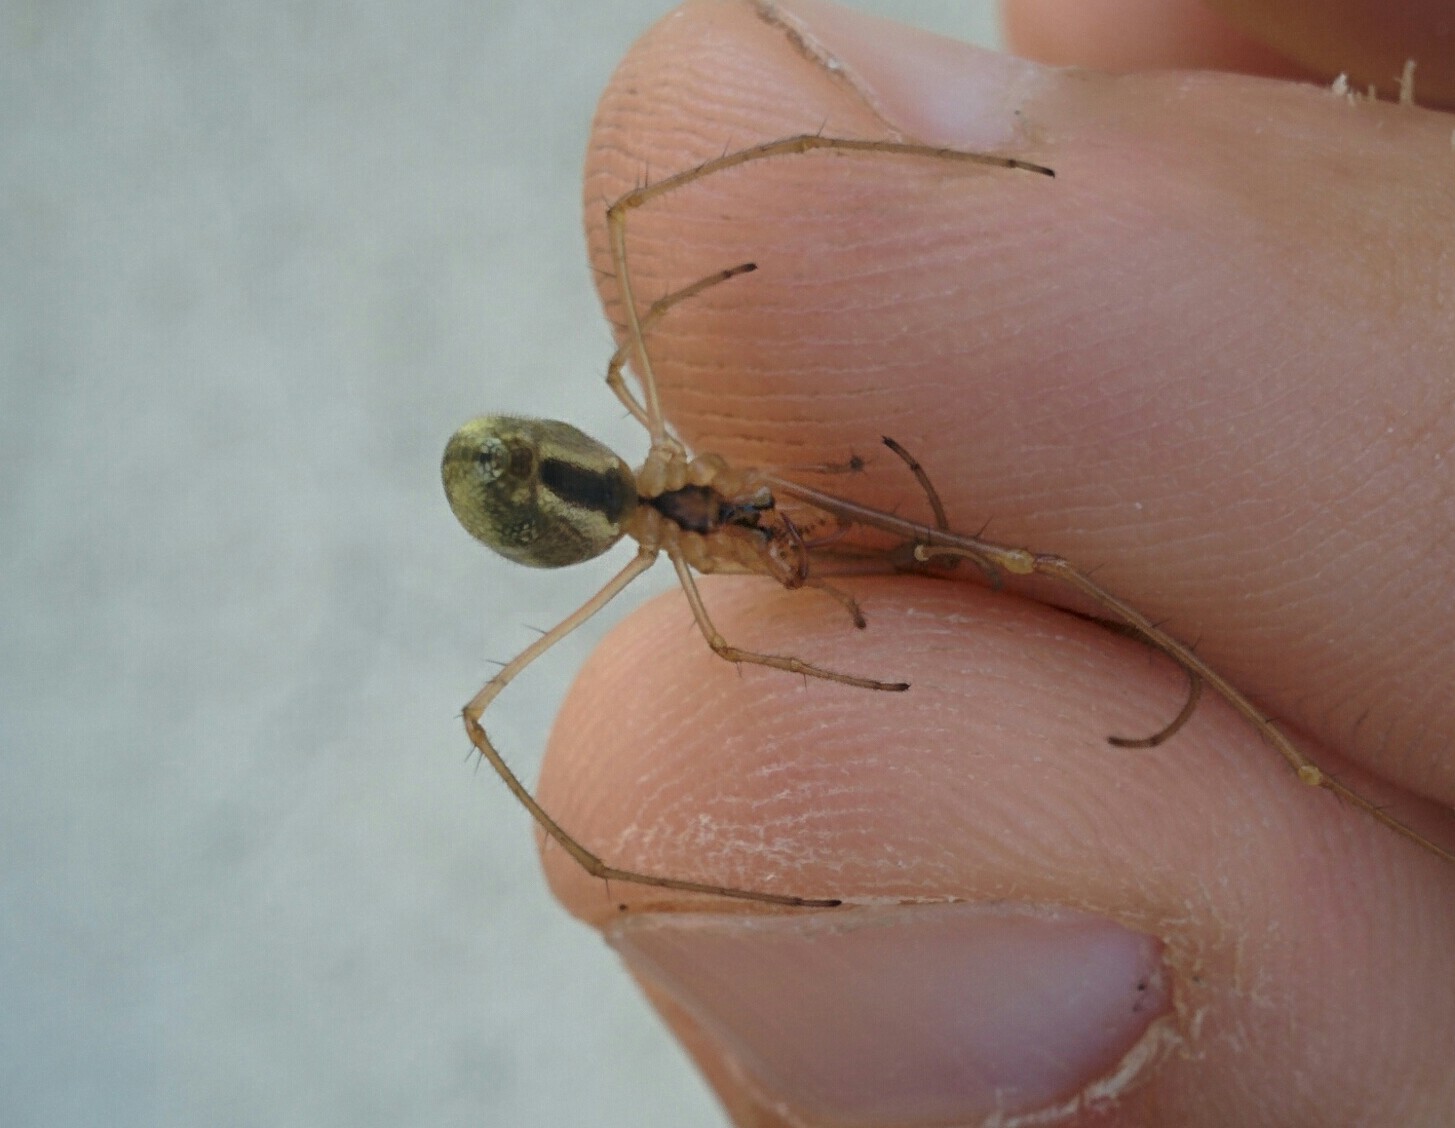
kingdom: Animalia
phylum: Arthropoda
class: Arachnida
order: Araneae
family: Tetragnathidae
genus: Tetragnatha
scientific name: Tetragnatha extensa
